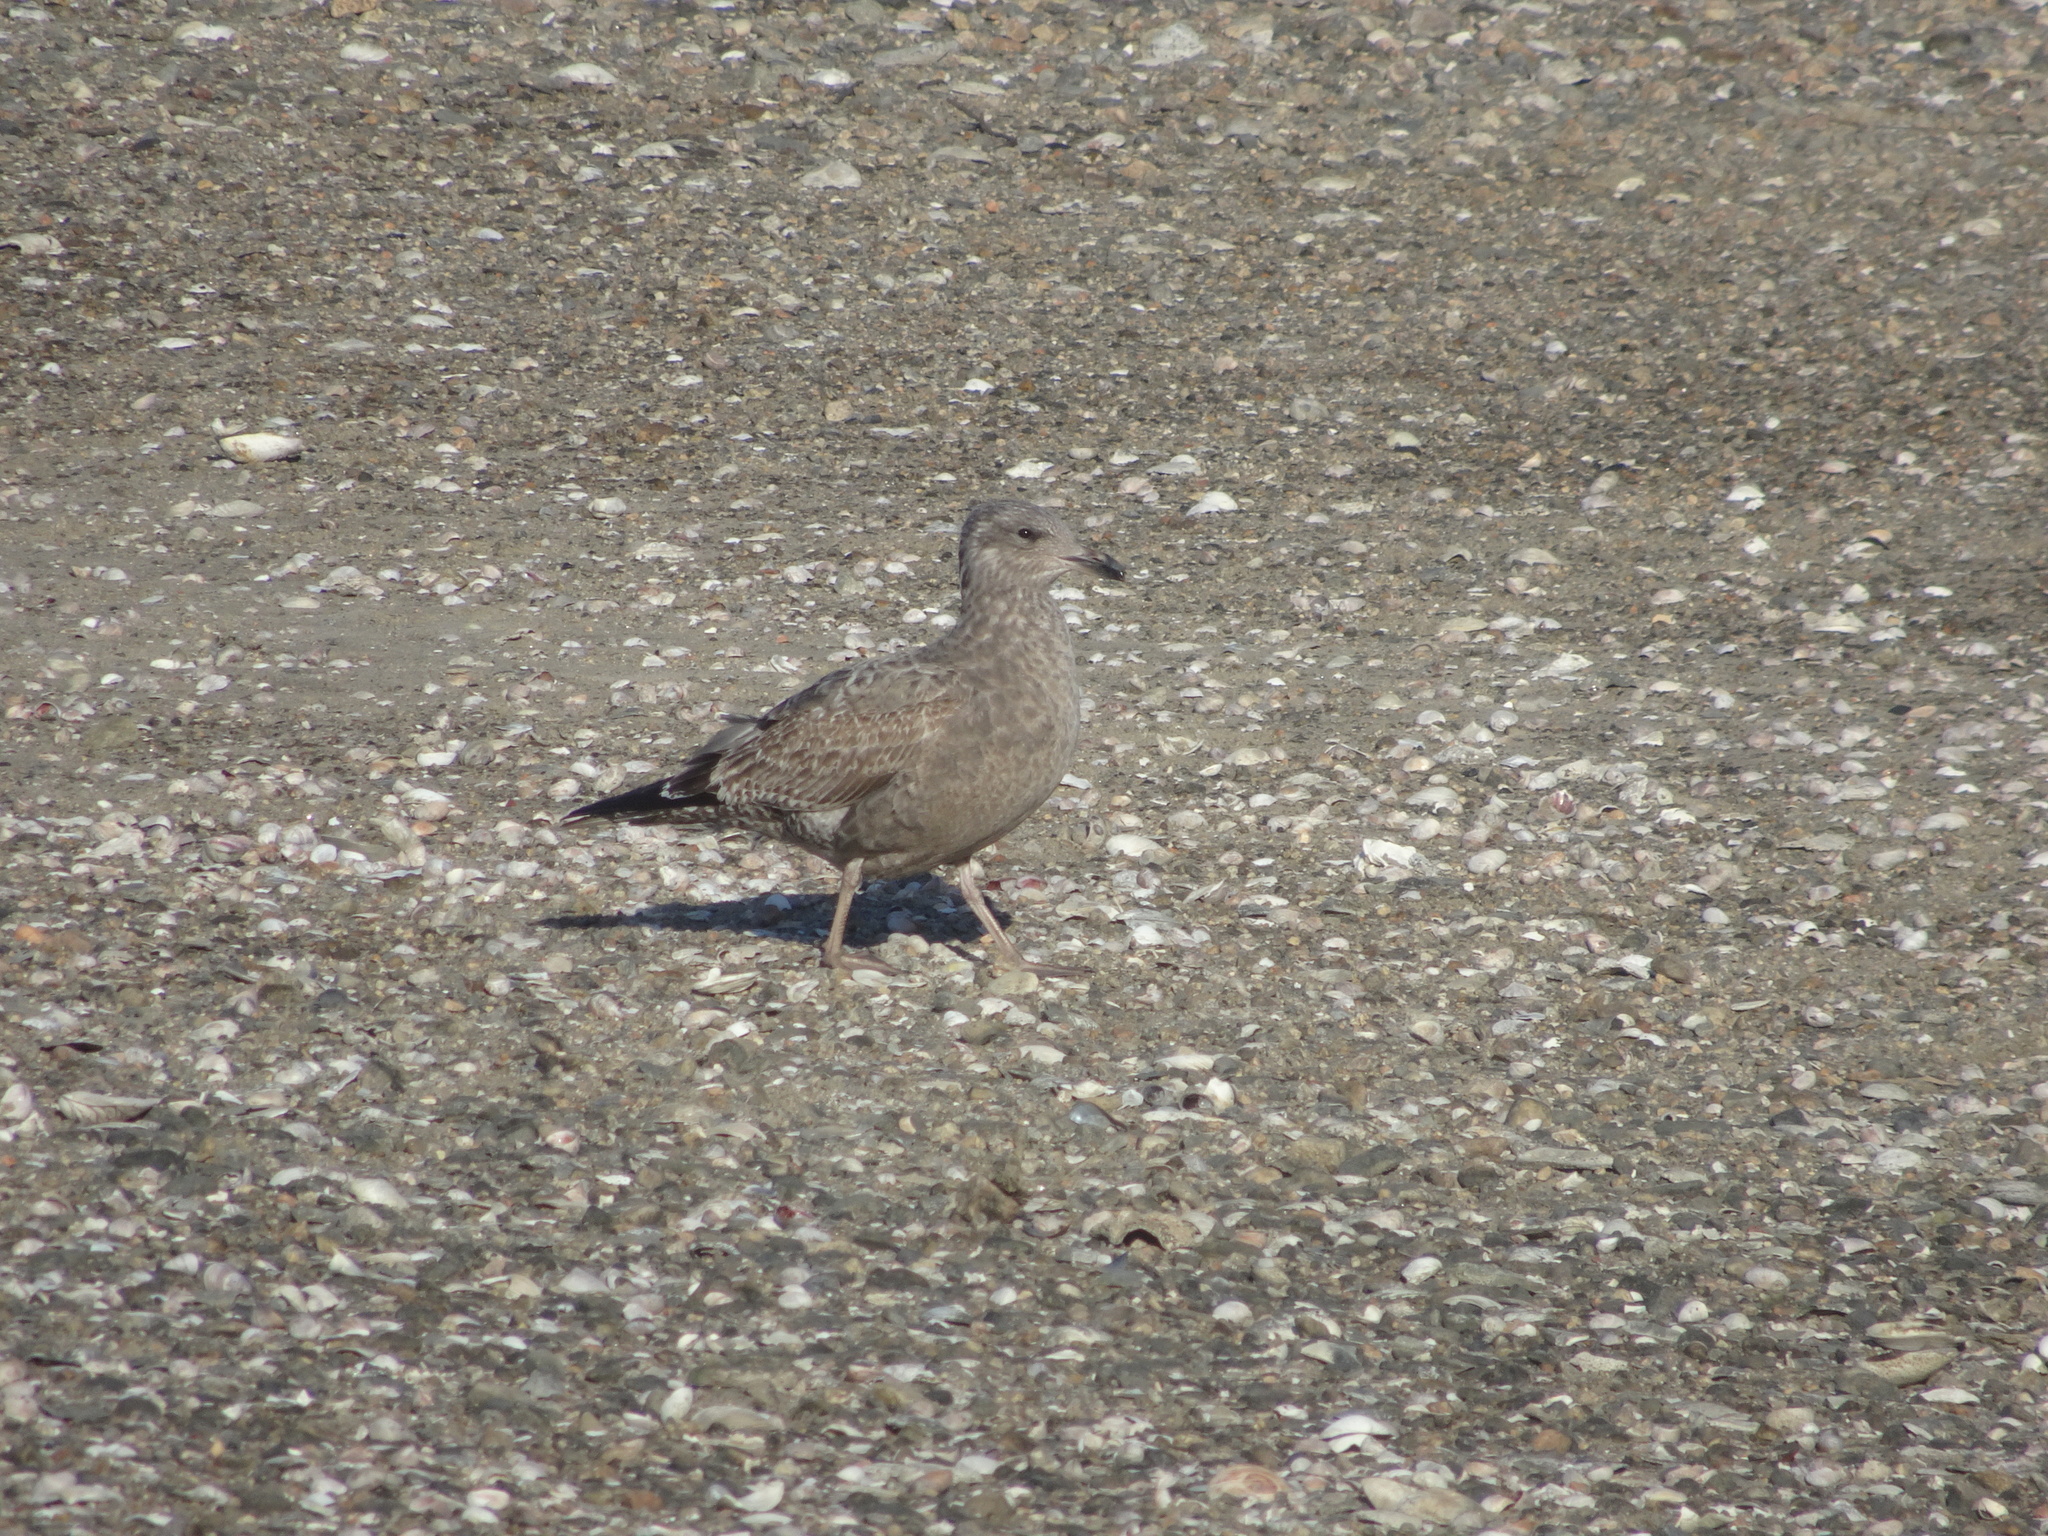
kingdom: Animalia
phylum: Chordata
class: Aves
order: Charadriiformes
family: Laridae
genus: Larus
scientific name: Larus argentatus
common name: Herring gull
